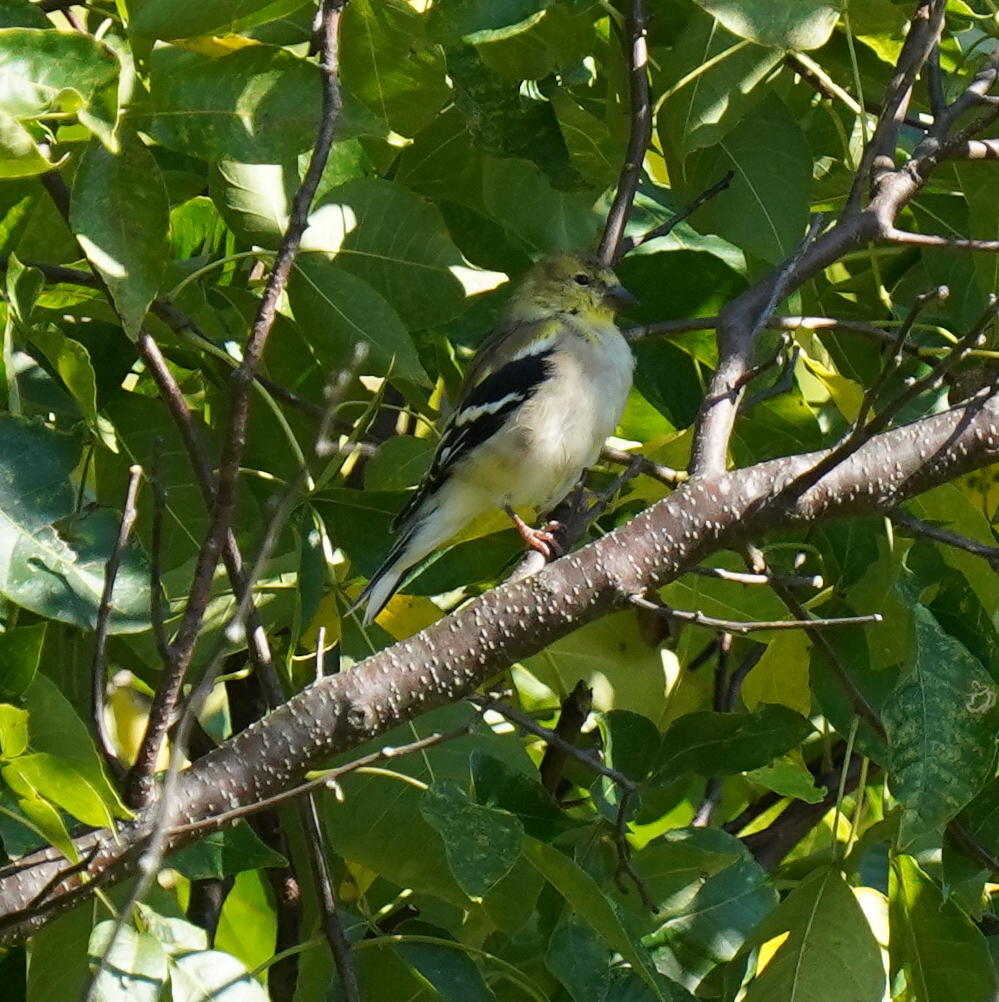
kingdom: Animalia
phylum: Chordata
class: Aves
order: Passeriformes
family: Fringillidae
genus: Spinus
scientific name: Spinus tristis
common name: American goldfinch
